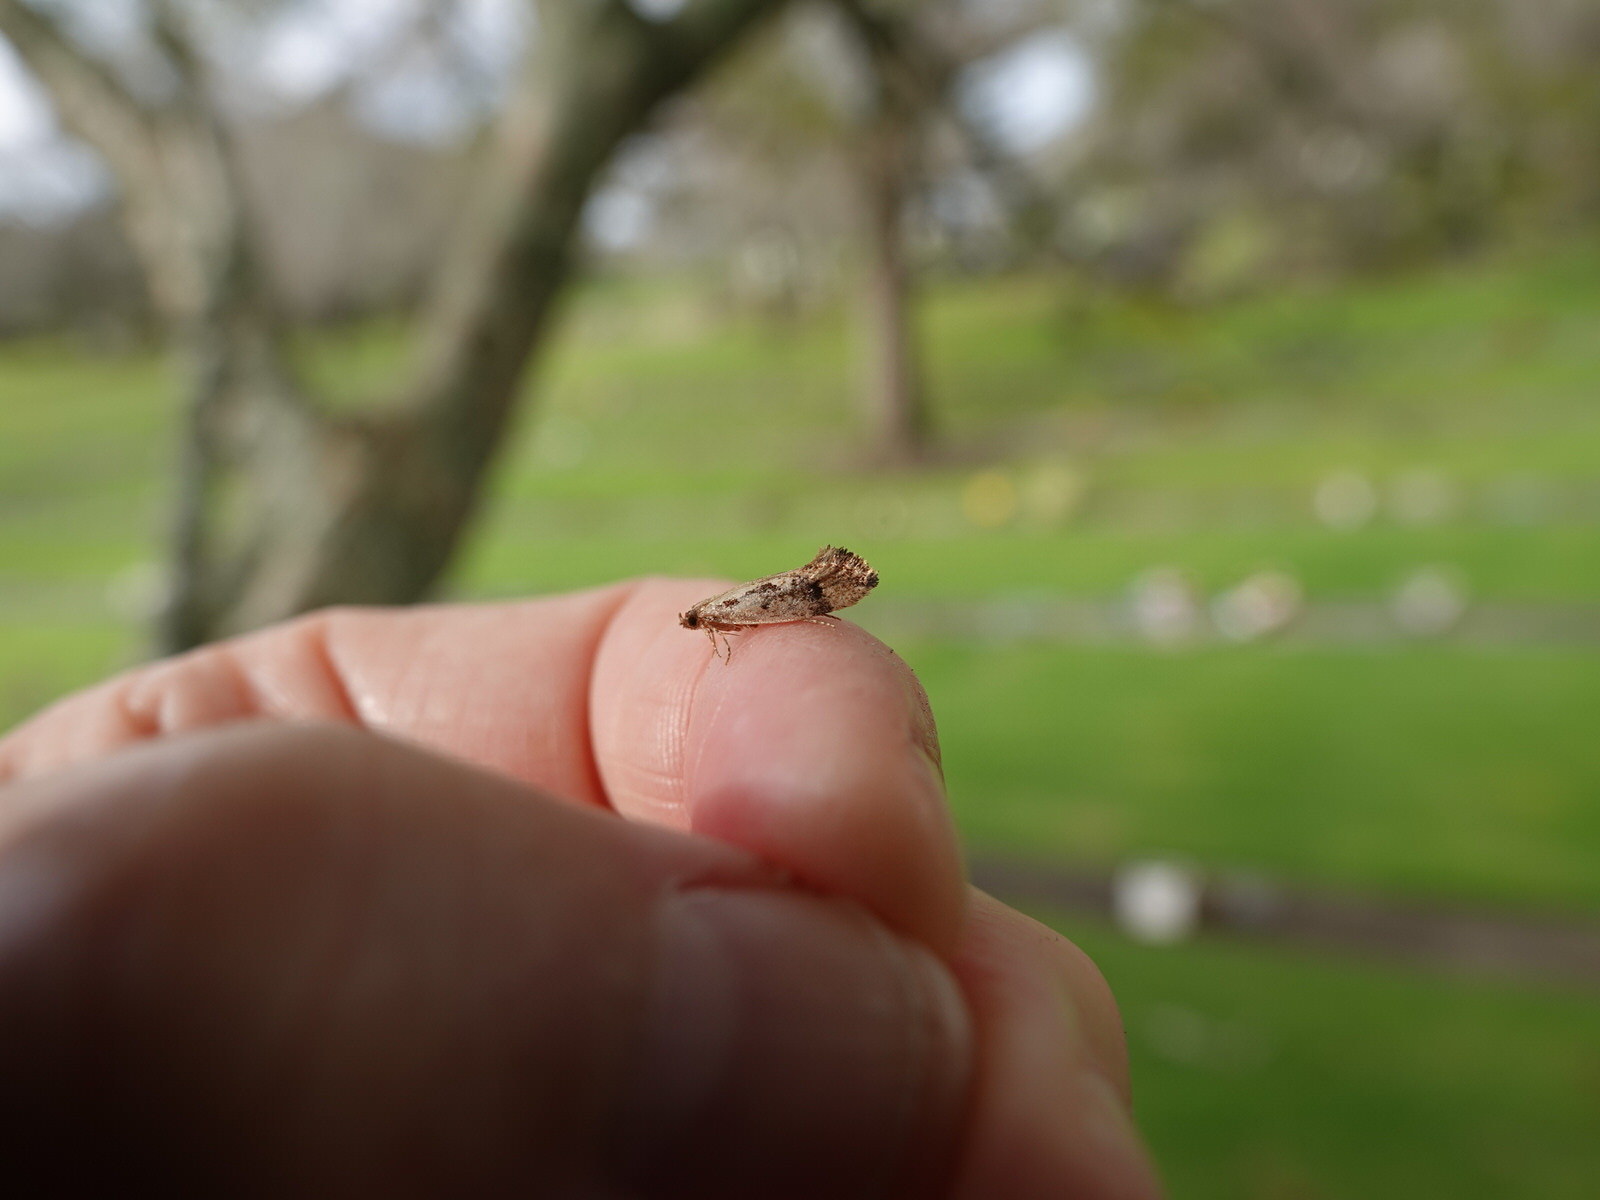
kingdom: Animalia
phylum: Arthropoda
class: Insecta
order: Lepidoptera
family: Tineidae
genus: Erechthias
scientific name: Erechthias capnitis
